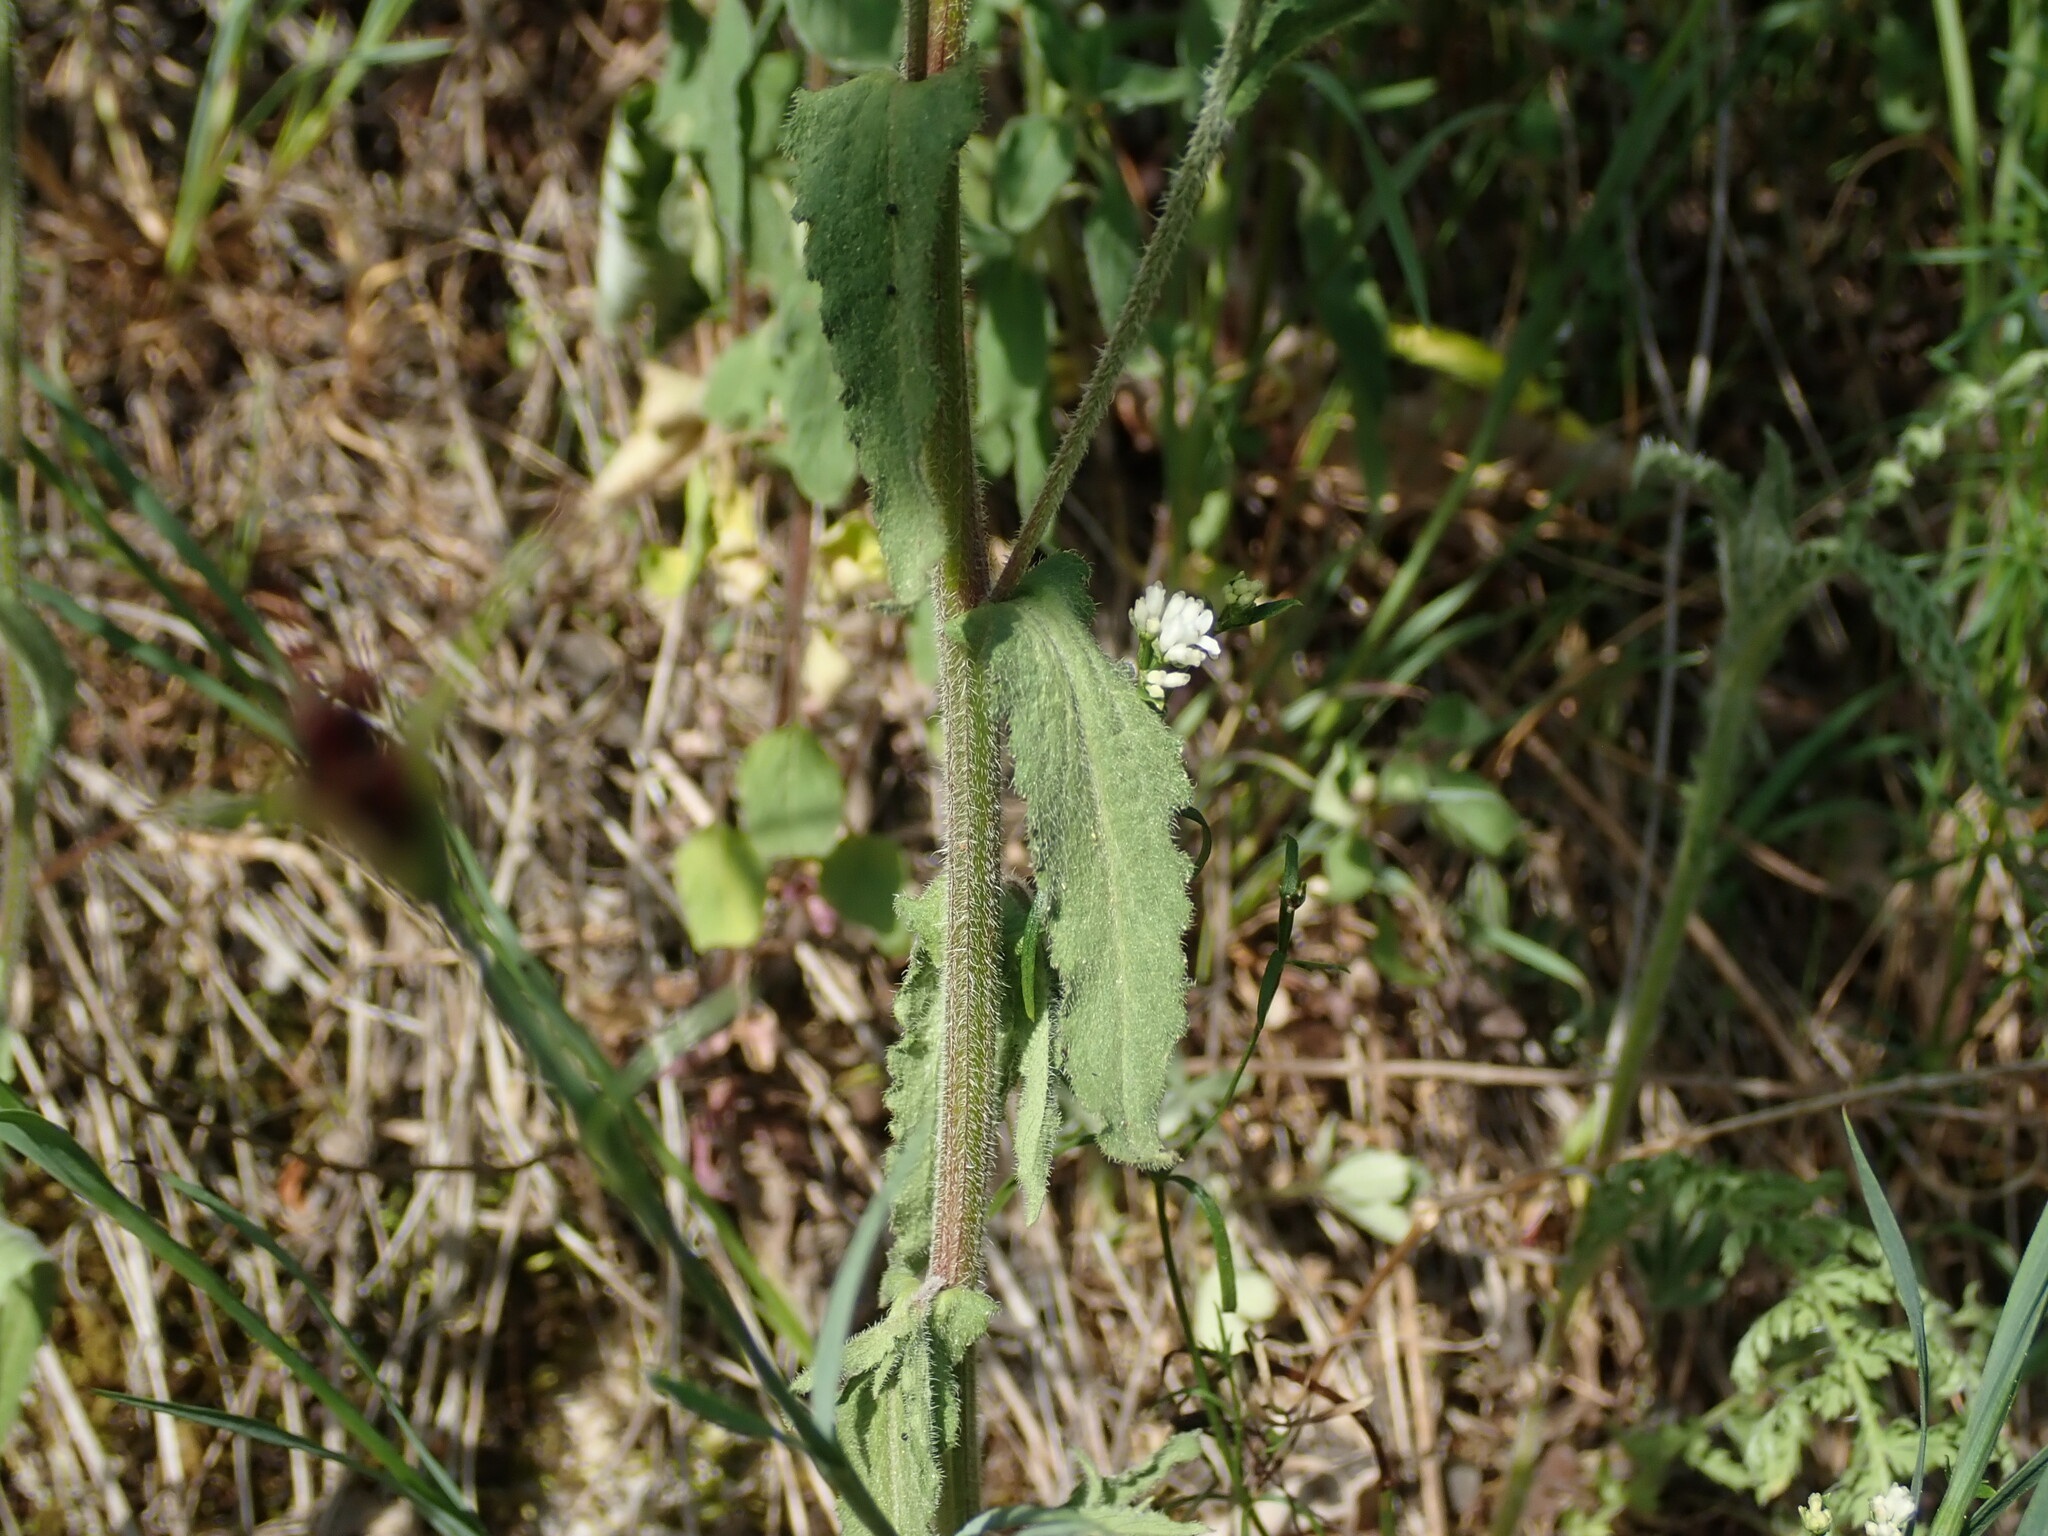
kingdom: Plantae
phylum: Tracheophyta
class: Magnoliopsida
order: Asterales
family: Campanulaceae
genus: Campanula
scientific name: Campanula sibirica
